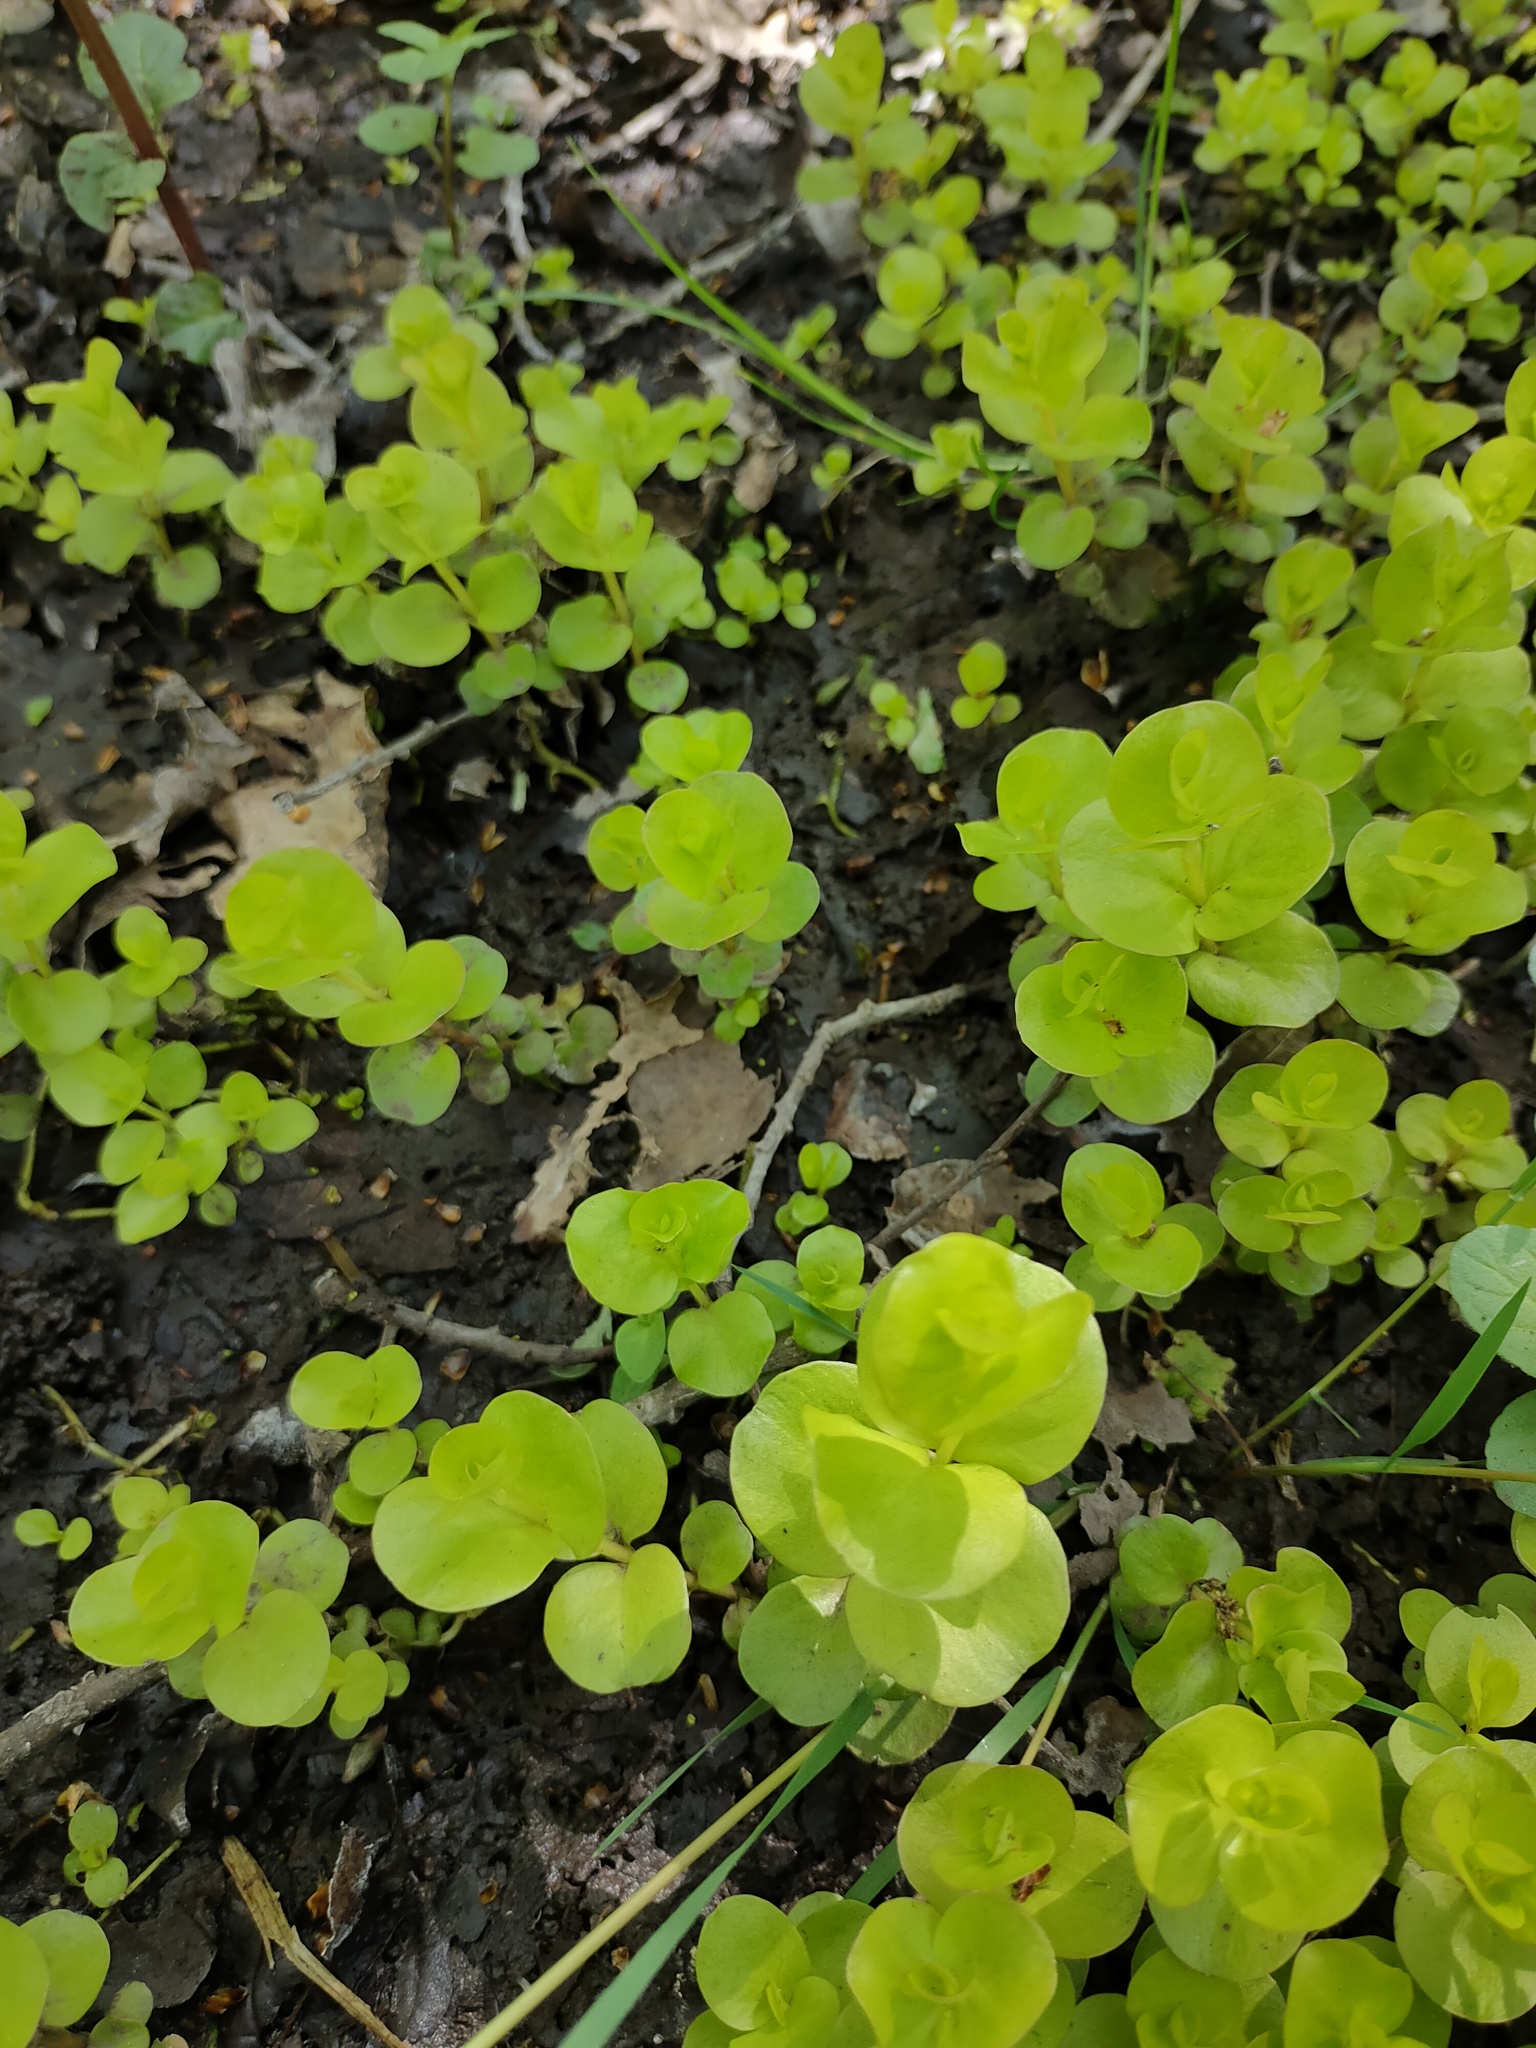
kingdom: Plantae
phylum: Tracheophyta
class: Magnoliopsida
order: Ericales
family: Primulaceae
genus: Lysimachia
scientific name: Lysimachia nummularia
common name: Moneywort
